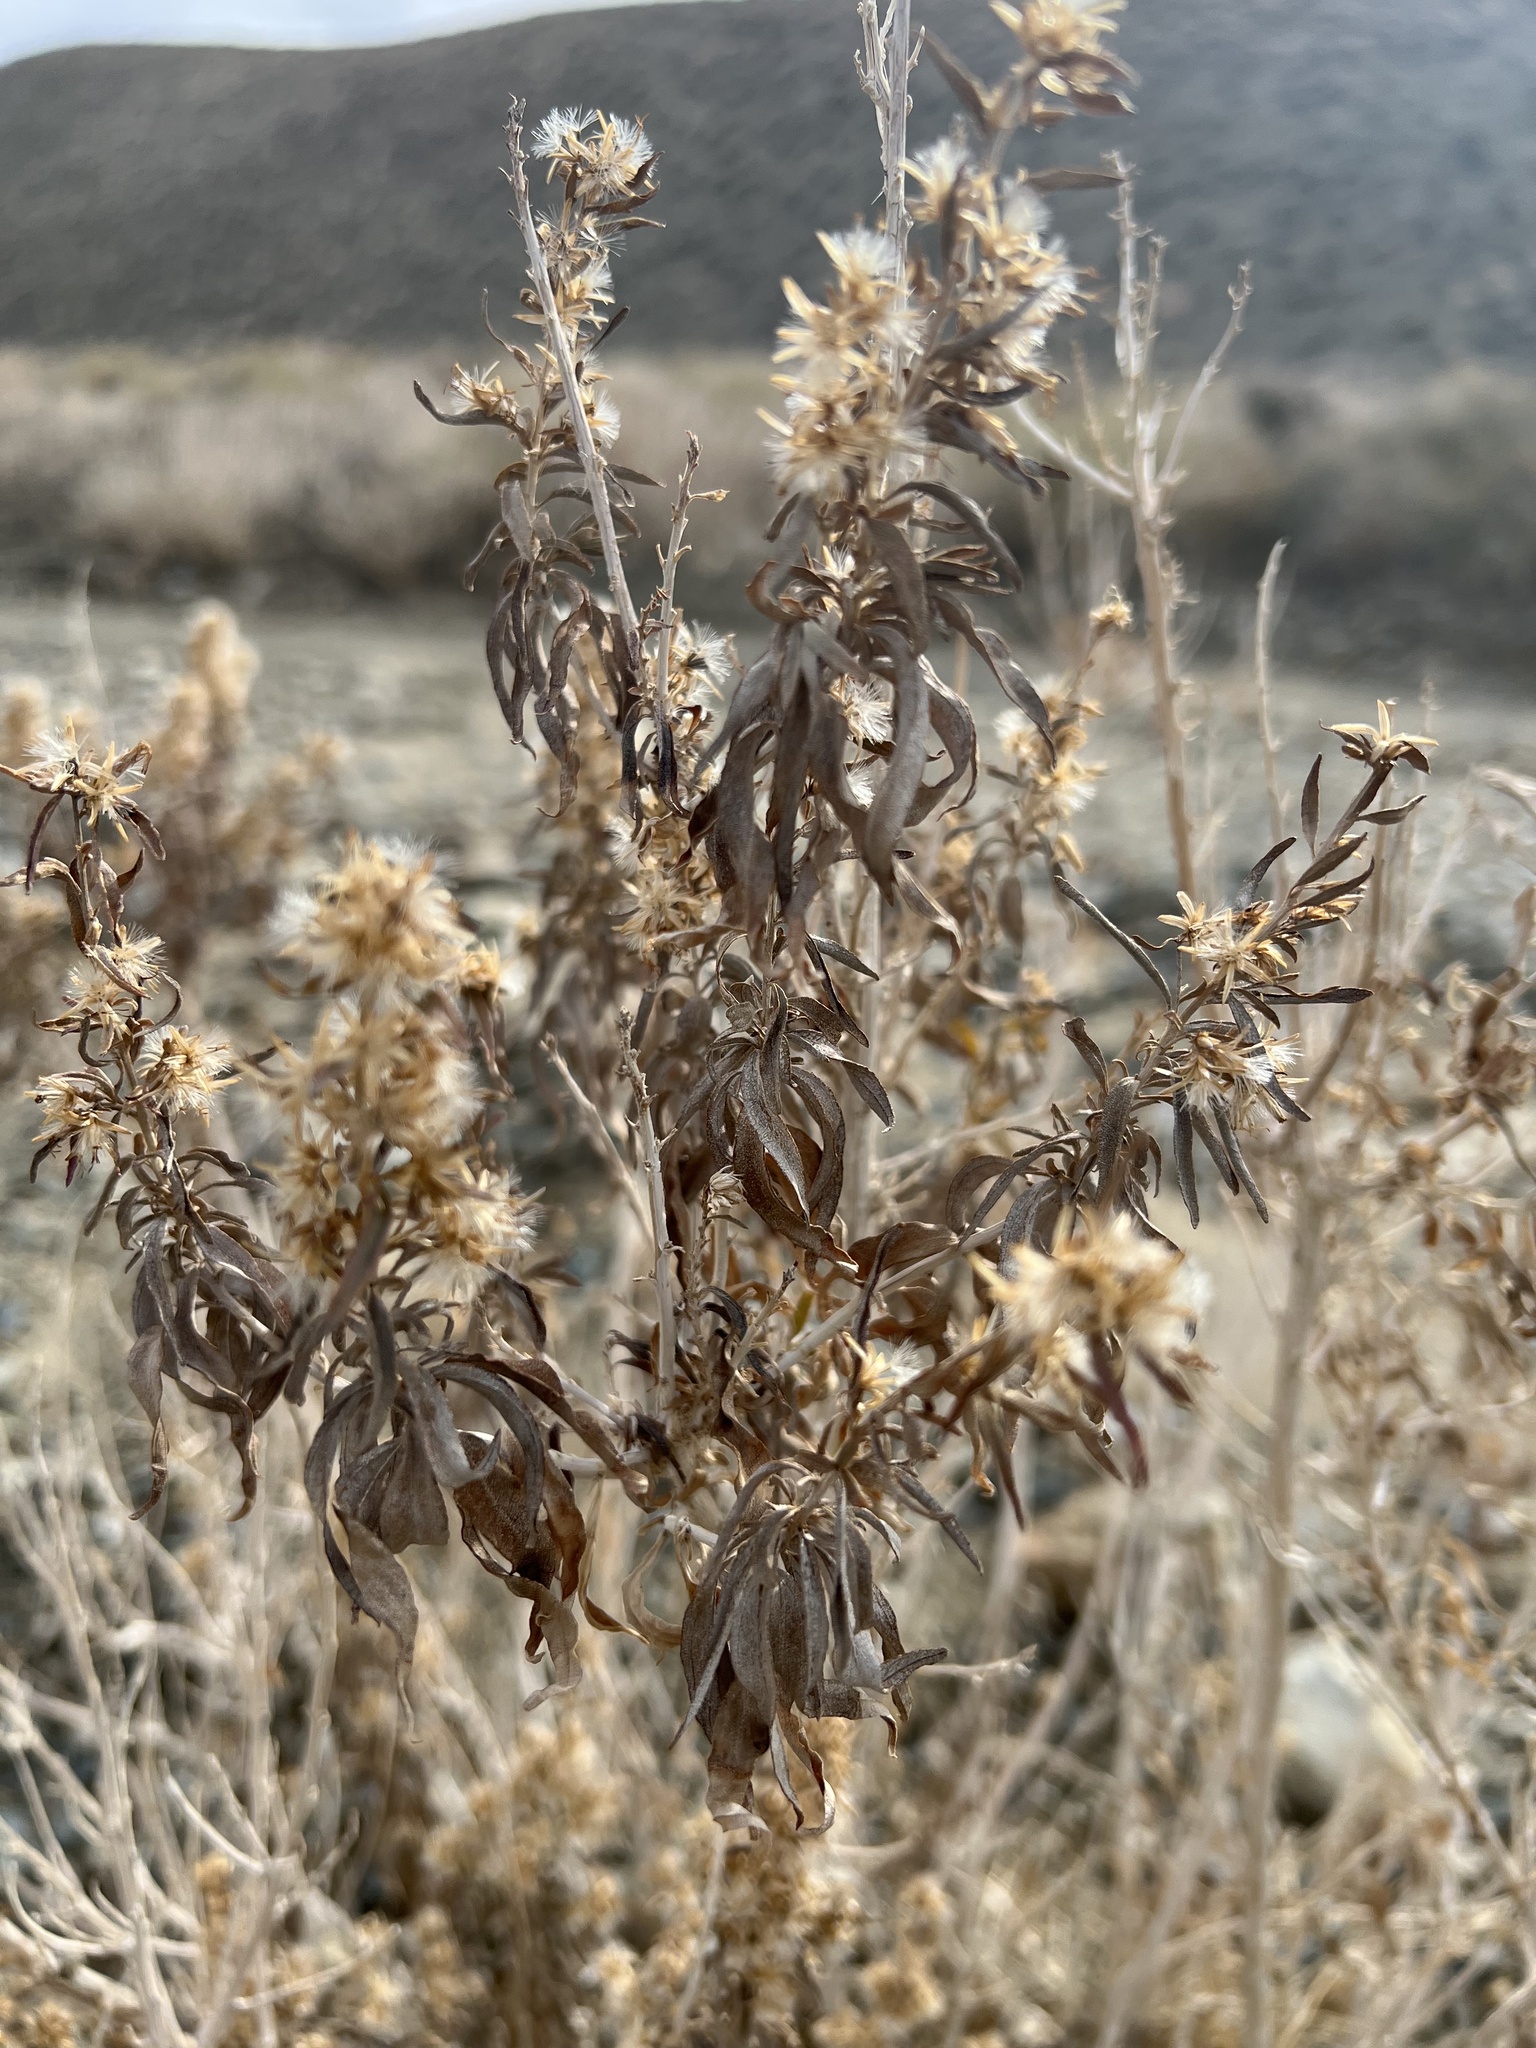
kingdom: Plantae
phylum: Tracheophyta
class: Magnoliopsida
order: Asterales
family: Asteraceae
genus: Brickellia
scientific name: Brickellia longifolia
